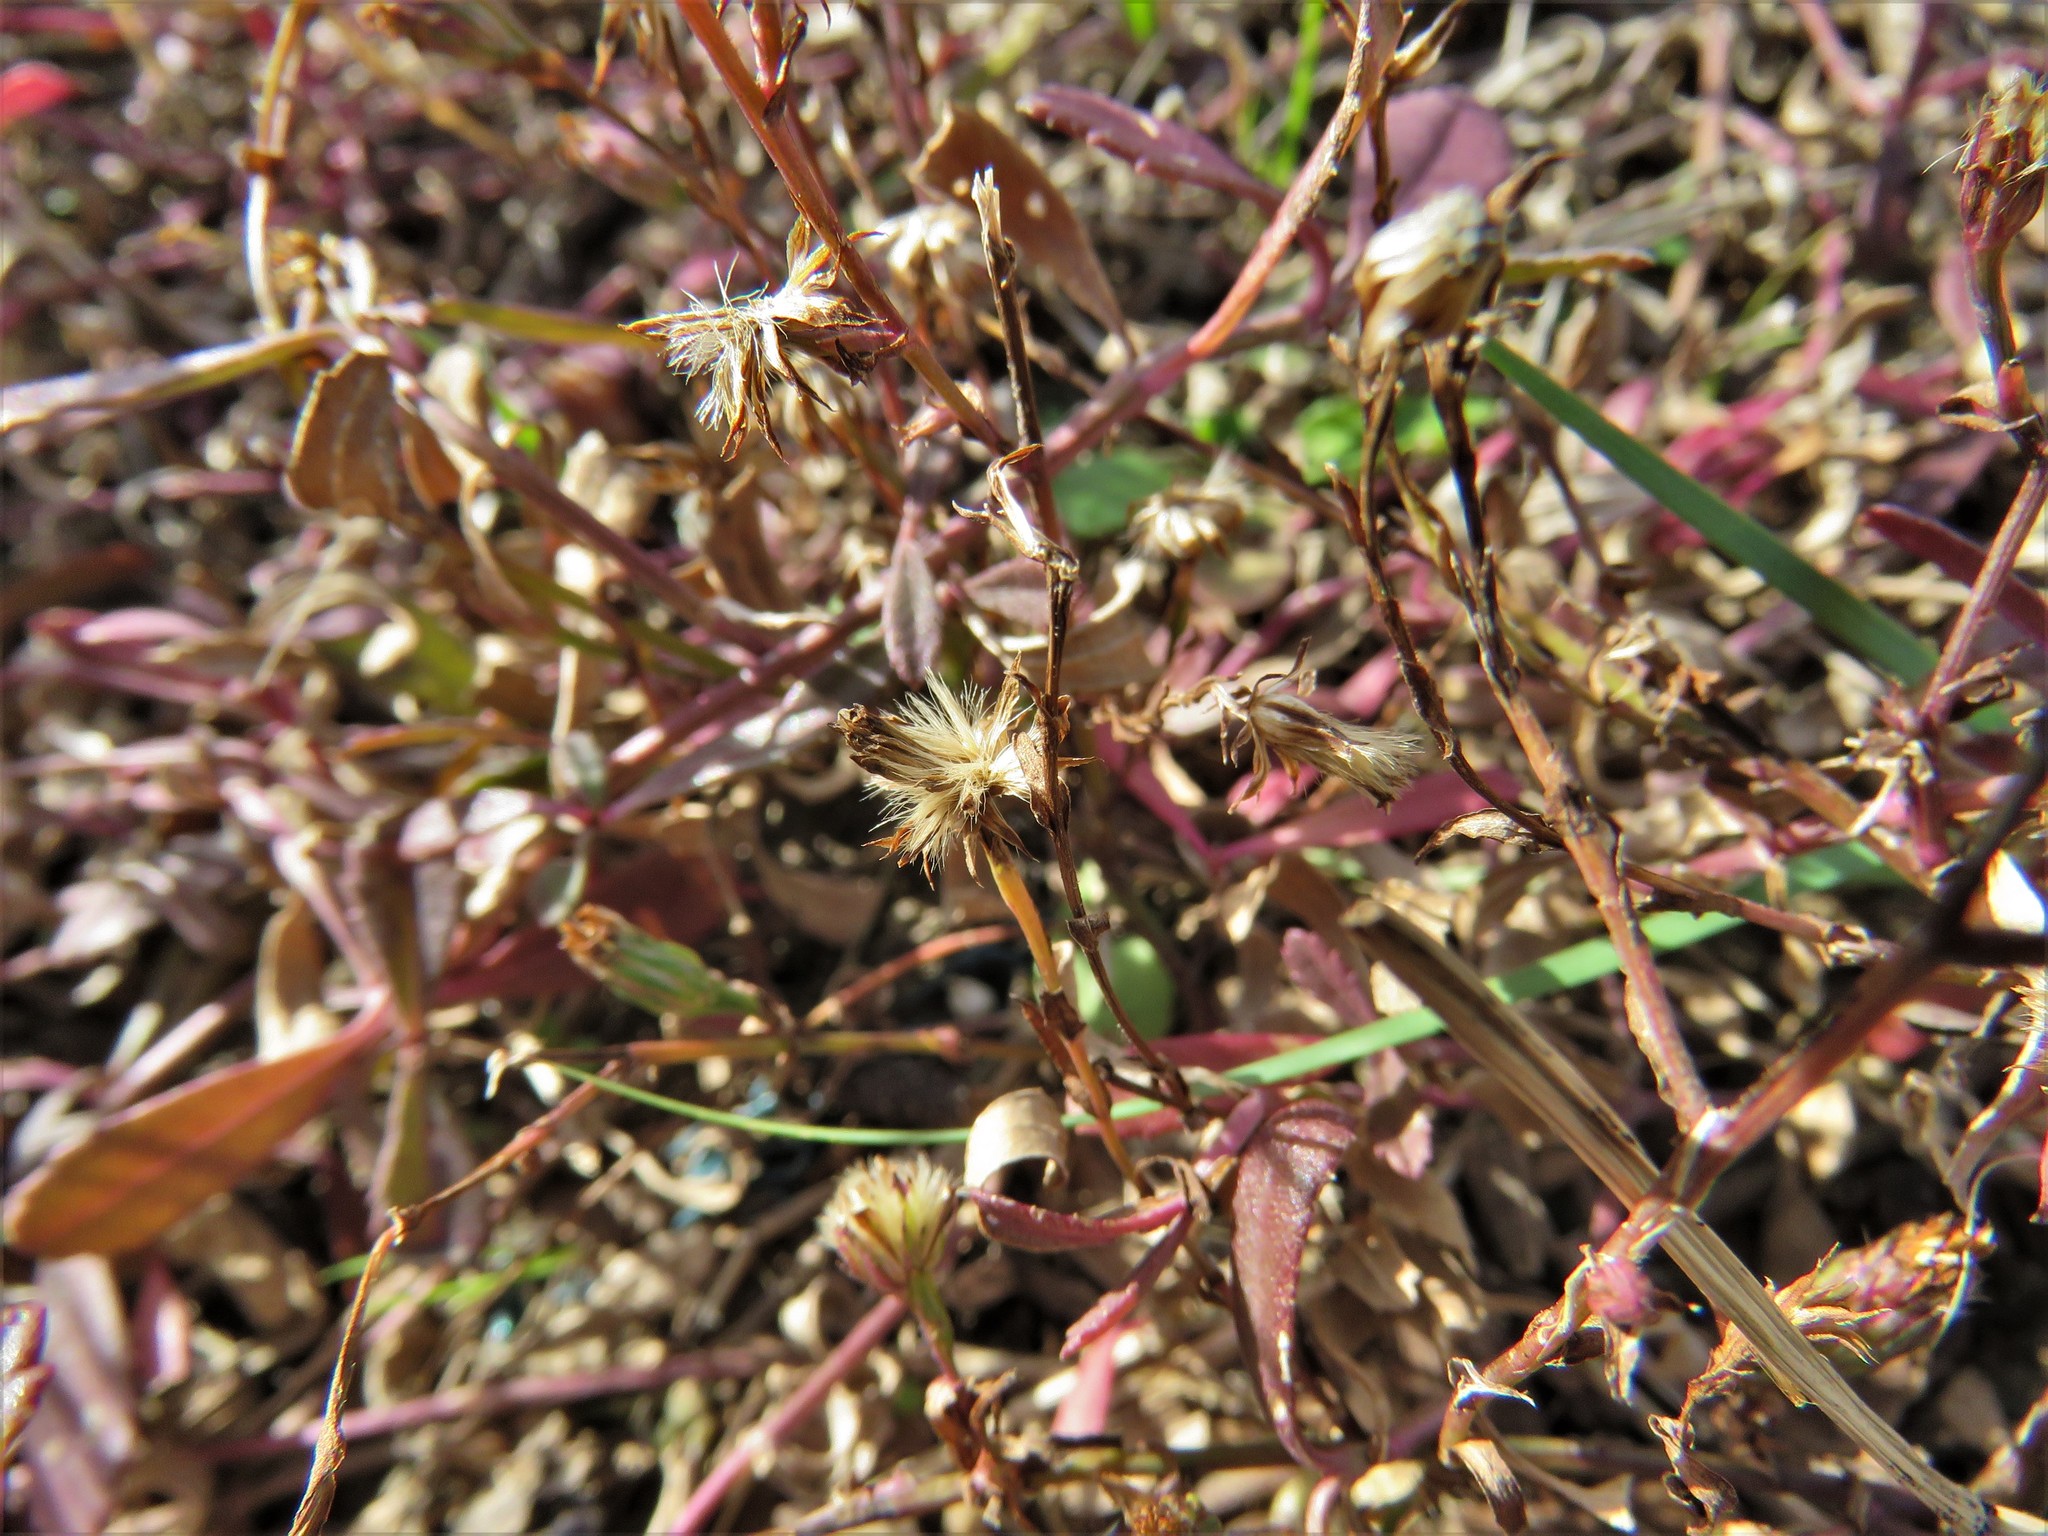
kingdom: Plantae
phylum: Tracheophyta
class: Magnoliopsida
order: Lamiales
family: Verbenaceae
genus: Phyla
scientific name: Phyla nodiflora
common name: Frogfruit
